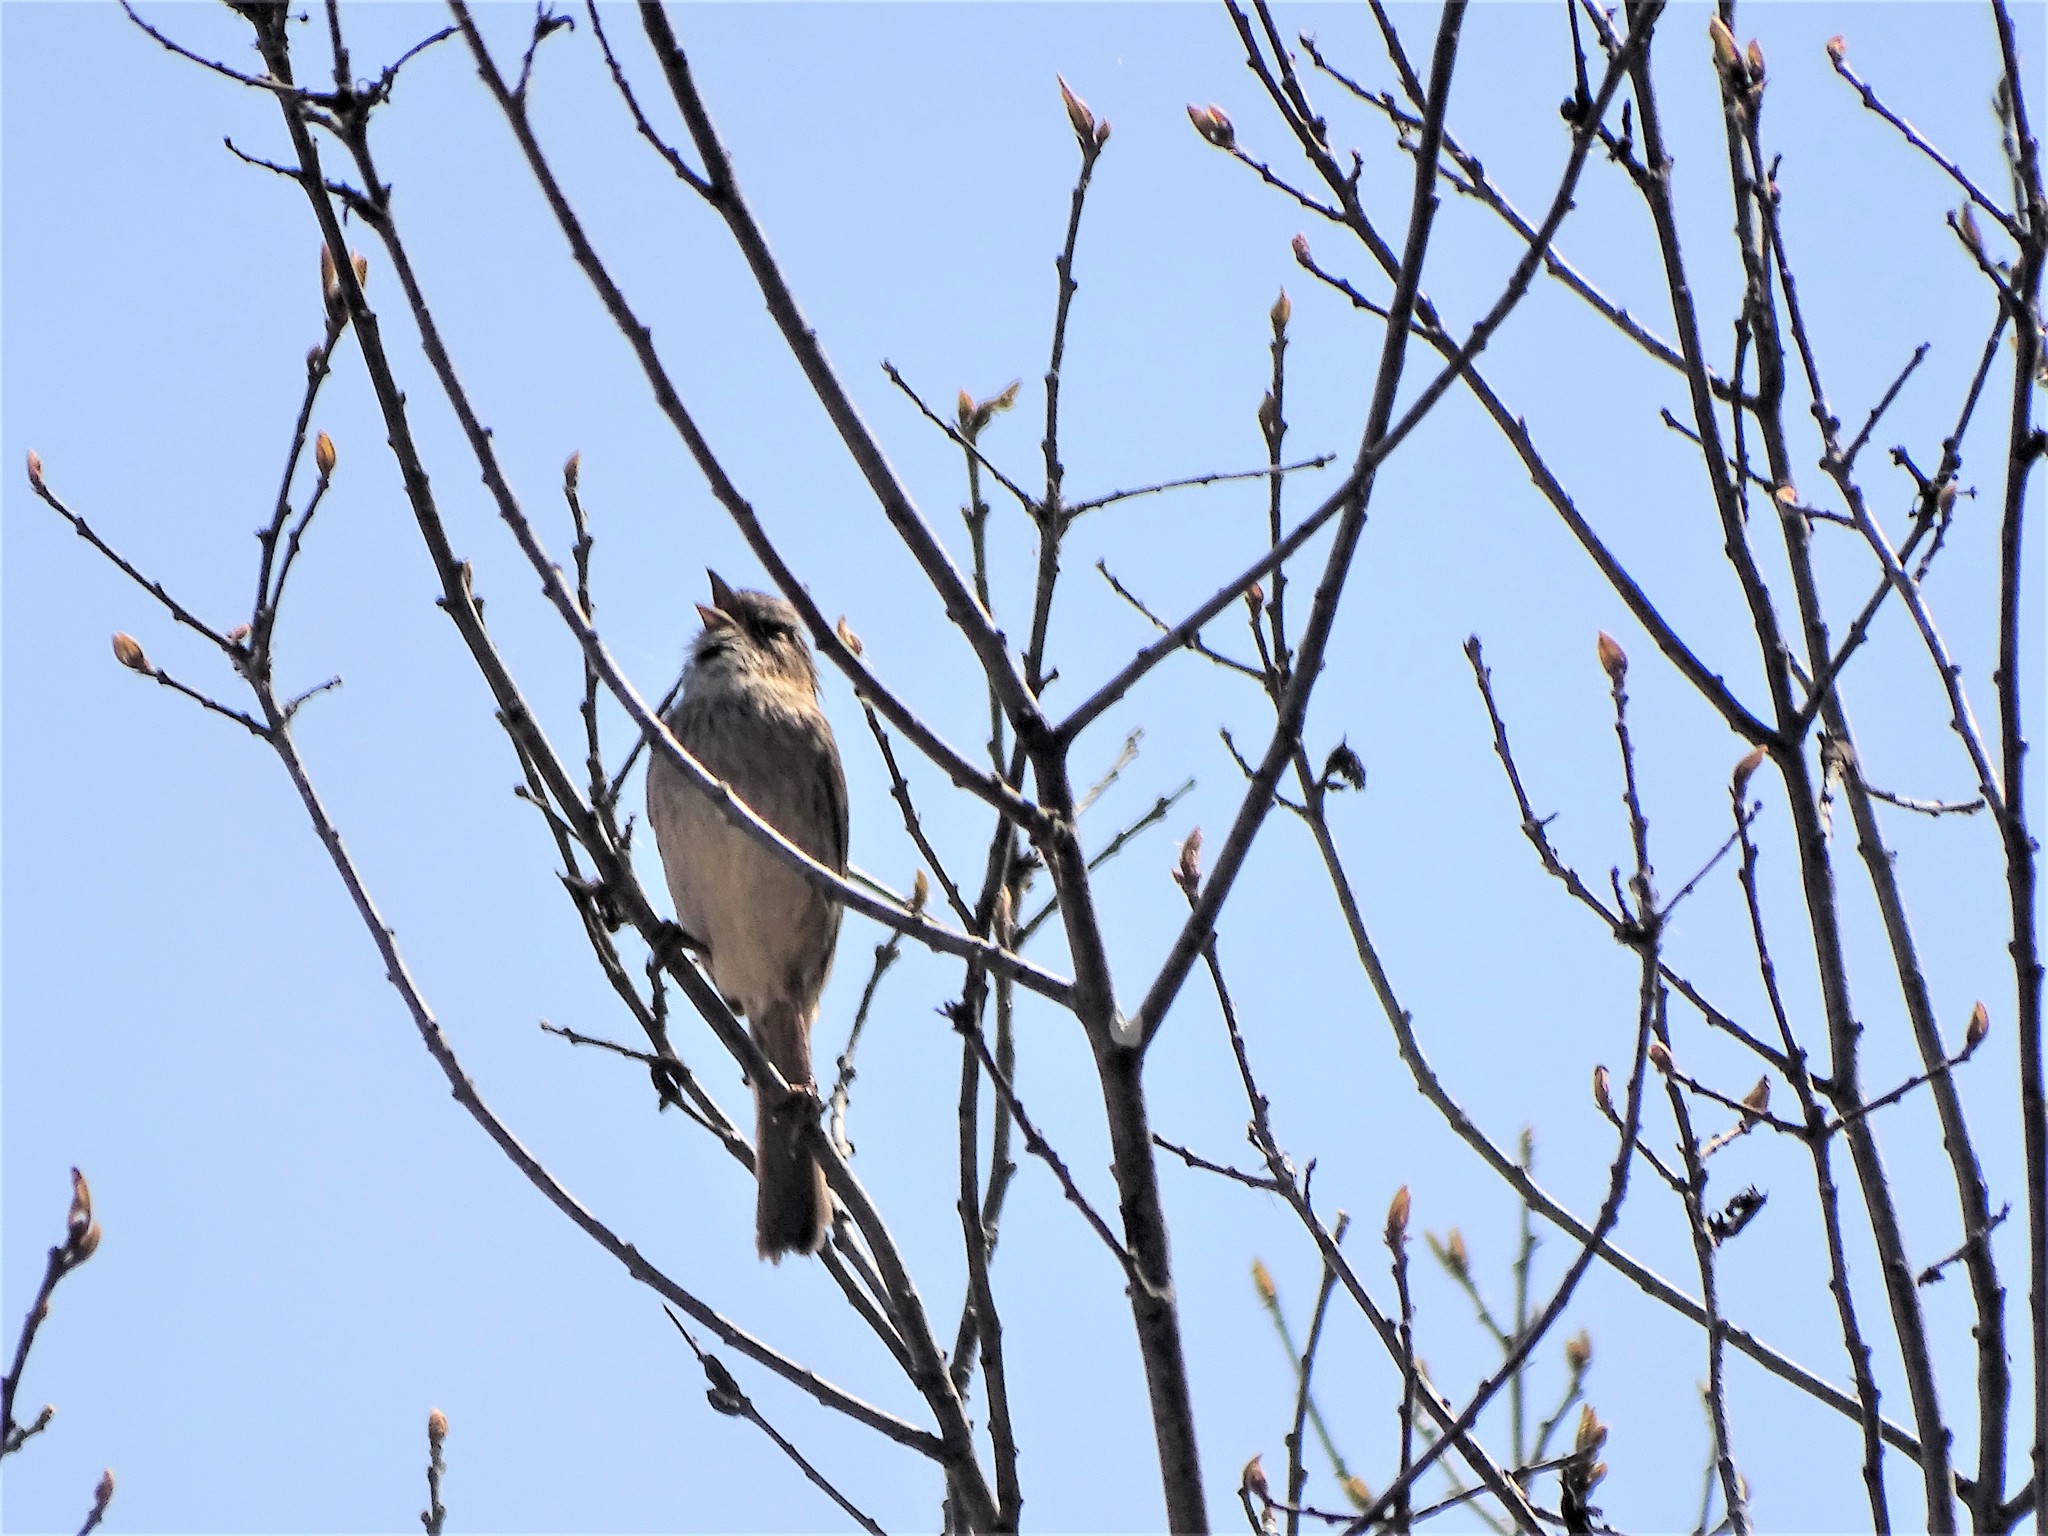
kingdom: Animalia
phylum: Chordata
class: Aves
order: Passeriformes
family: Passerellidae
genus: Melospiza
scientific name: Melospiza georgiana
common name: Swamp sparrow
